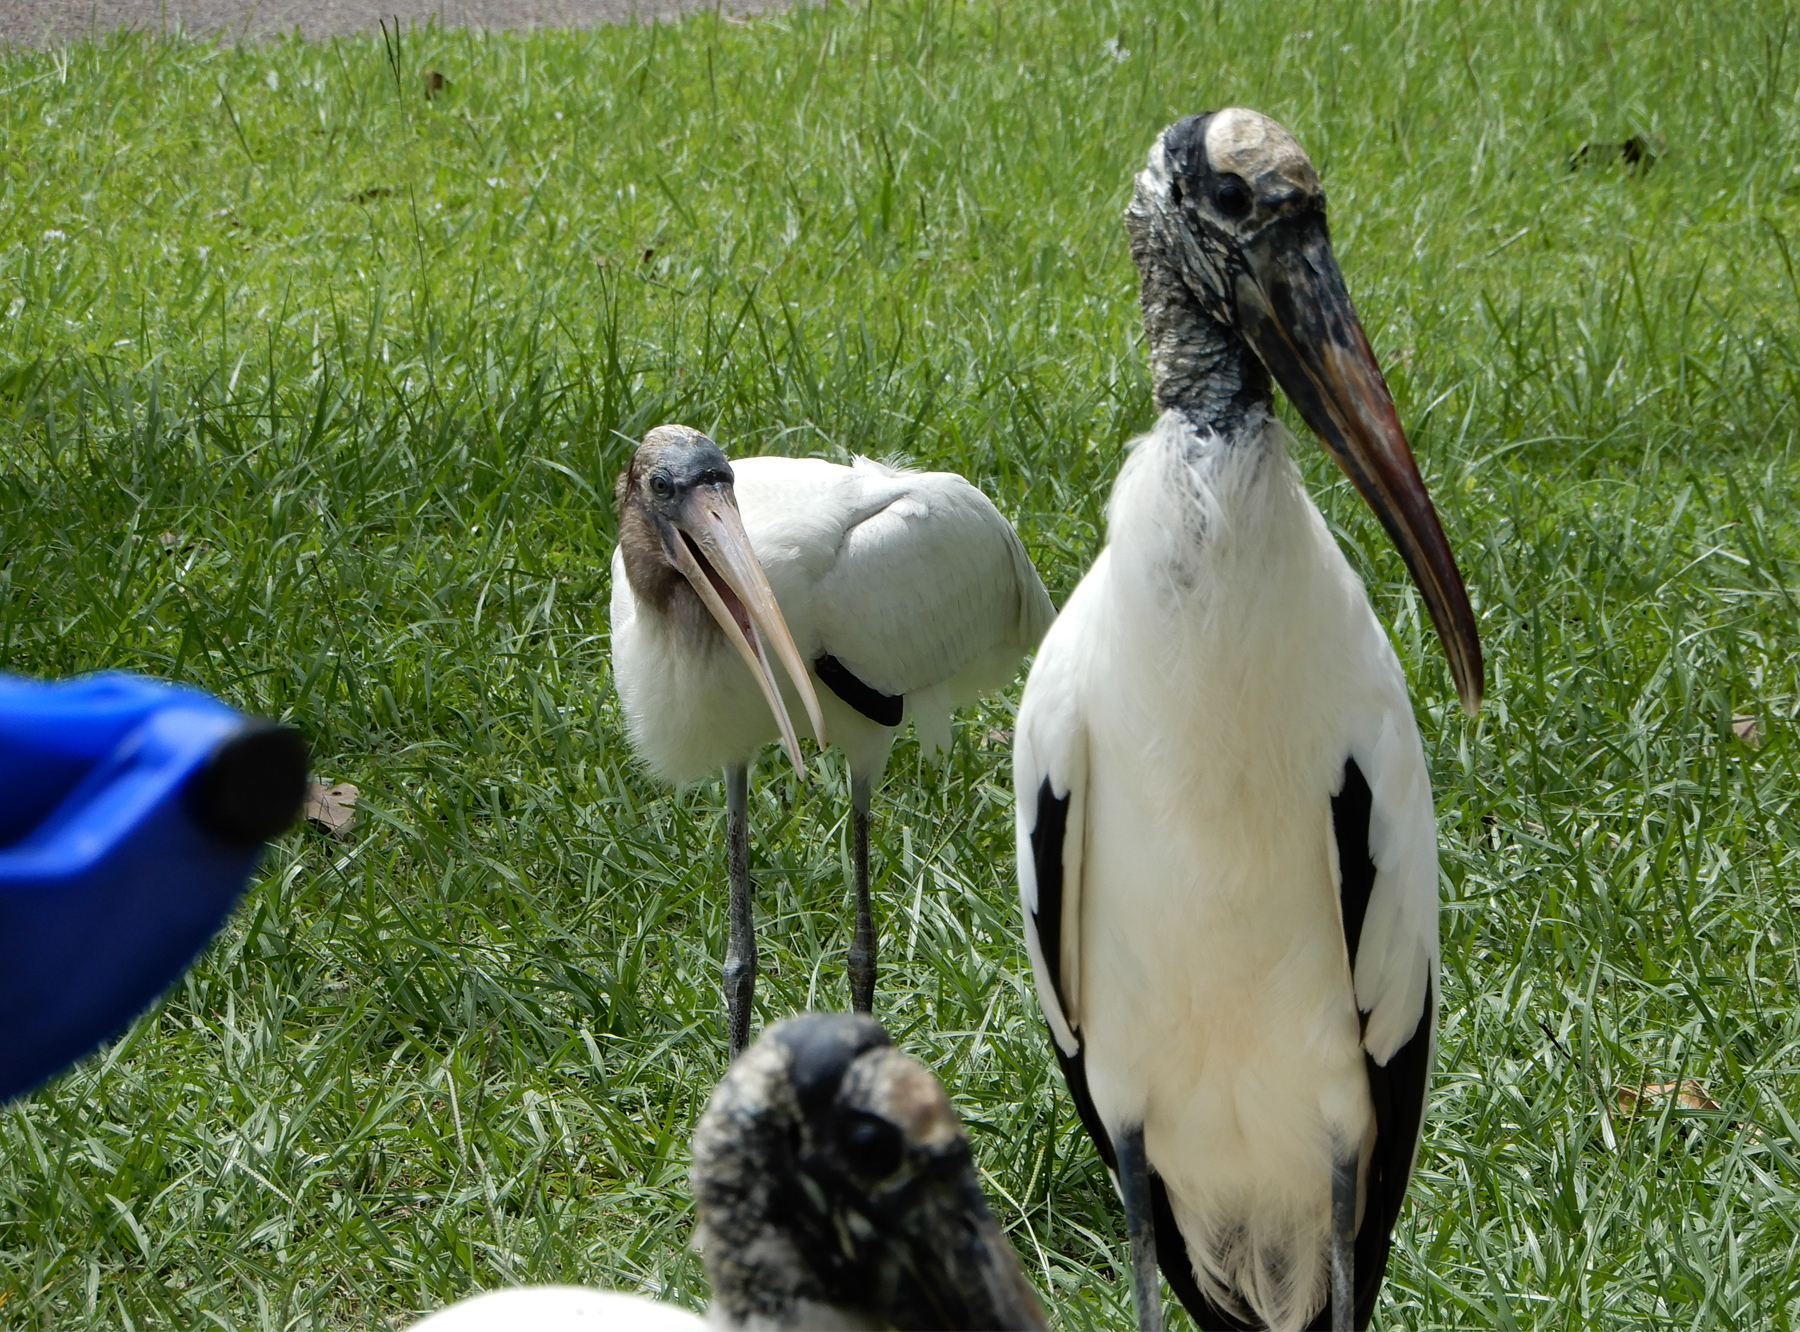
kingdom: Animalia
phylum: Chordata
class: Aves
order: Ciconiiformes
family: Ciconiidae
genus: Mycteria
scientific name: Mycteria americana
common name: Wood stork
